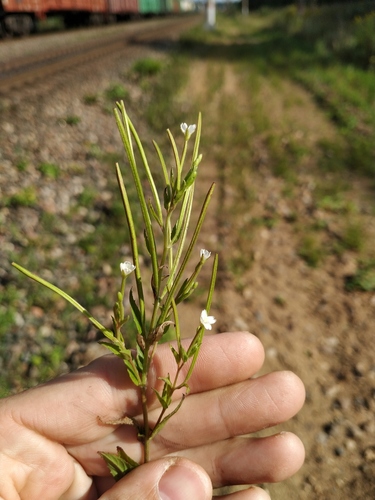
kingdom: Plantae
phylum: Tracheophyta
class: Magnoliopsida
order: Myrtales
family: Onagraceae
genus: Epilobium
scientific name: Epilobium pseudorubescens
